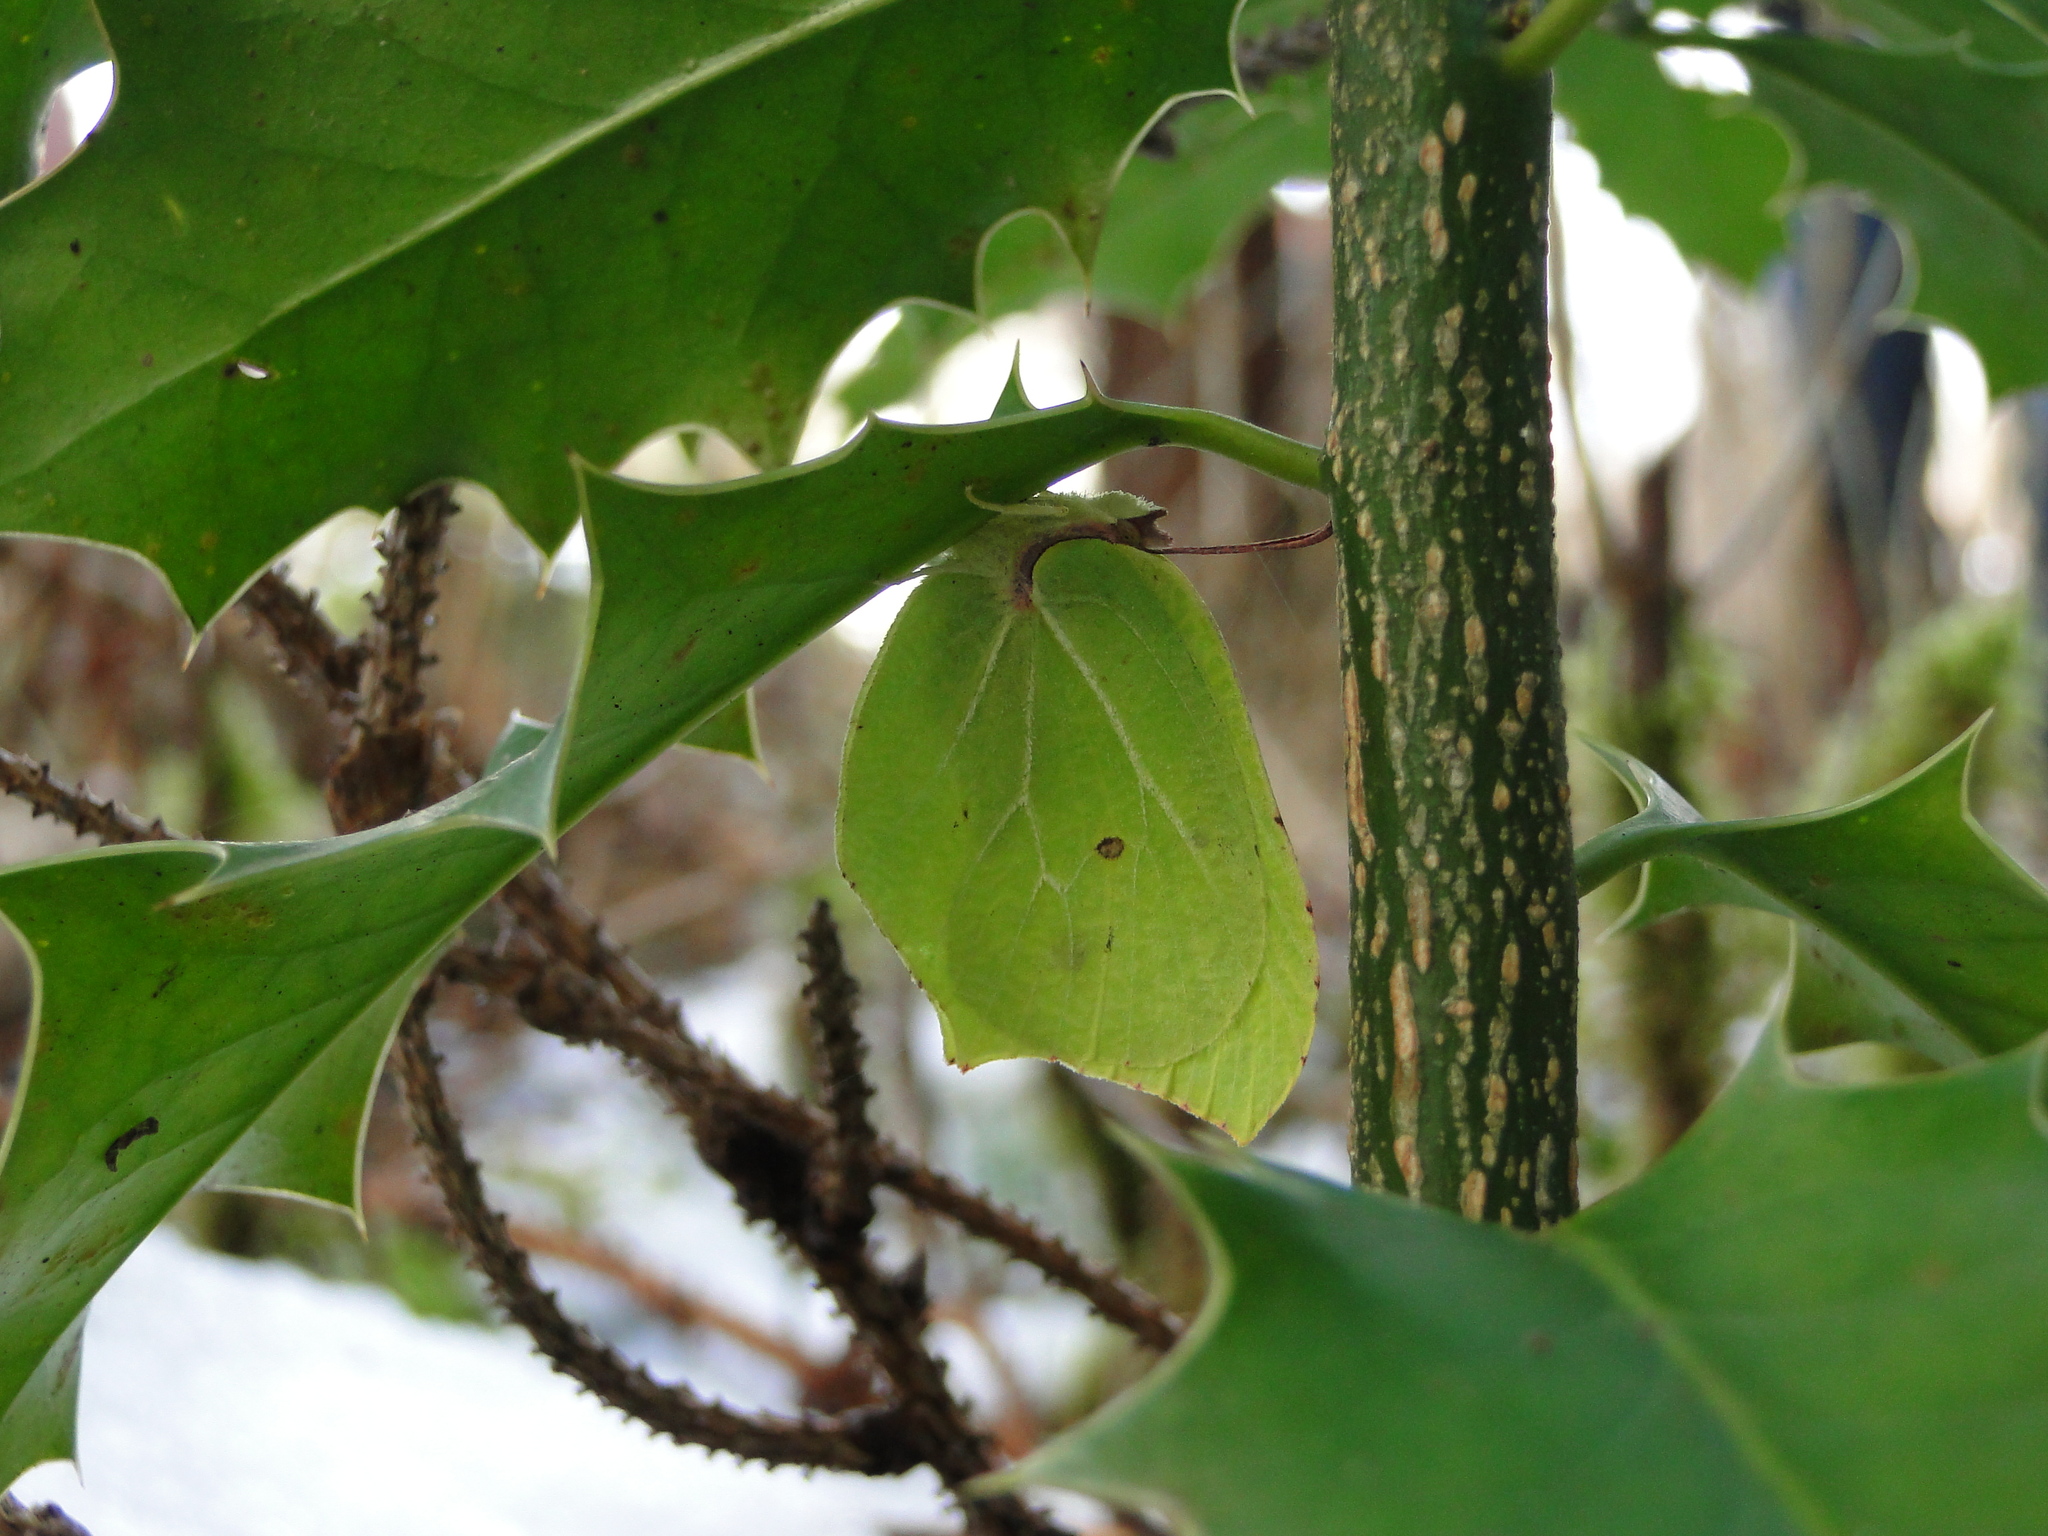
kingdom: Animalia
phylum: Arthropoda
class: Insecta
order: Lepidoptera
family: Pieridae
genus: Gonepteryx
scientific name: Gonepteryx rhamni
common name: Brimstone
